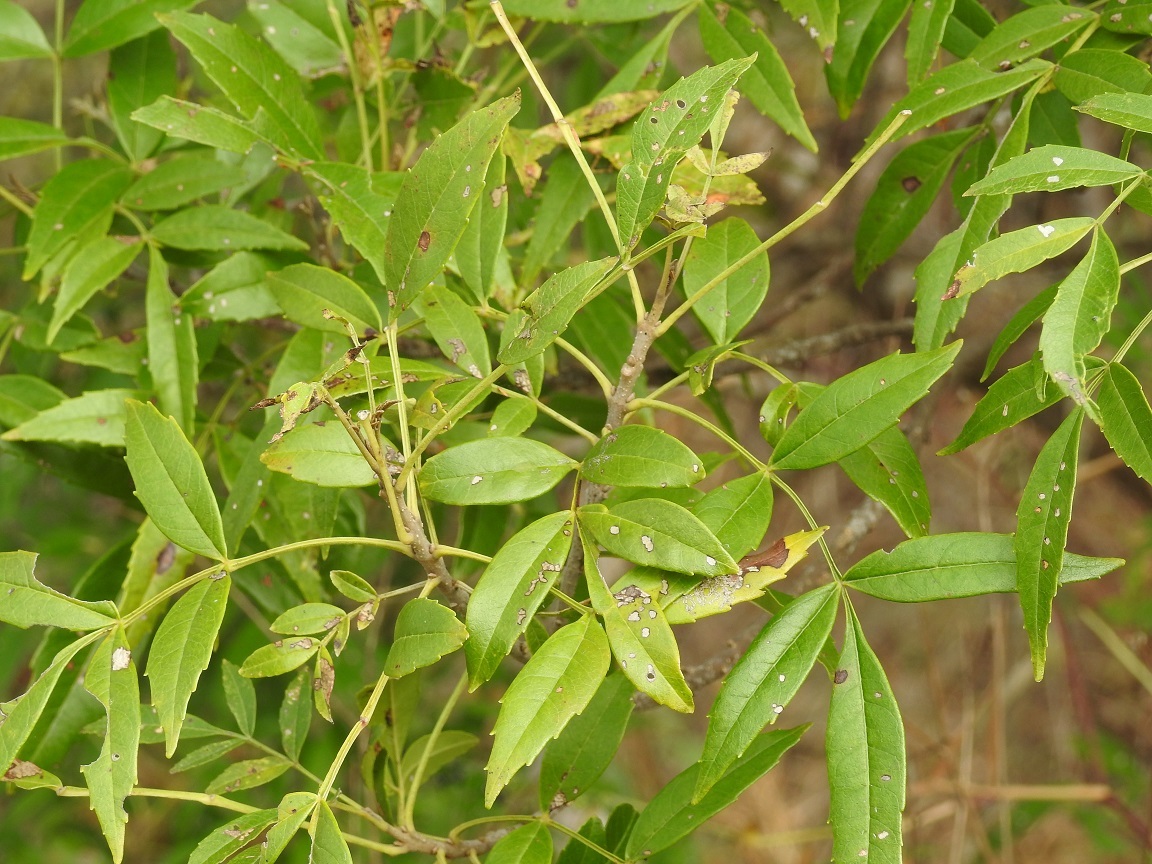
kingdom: Plantae
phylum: Tracheophyta
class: Magnoliopsida
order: Lamiales
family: Oleaceae
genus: Fraxinus
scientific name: Fraxinus purpusii
